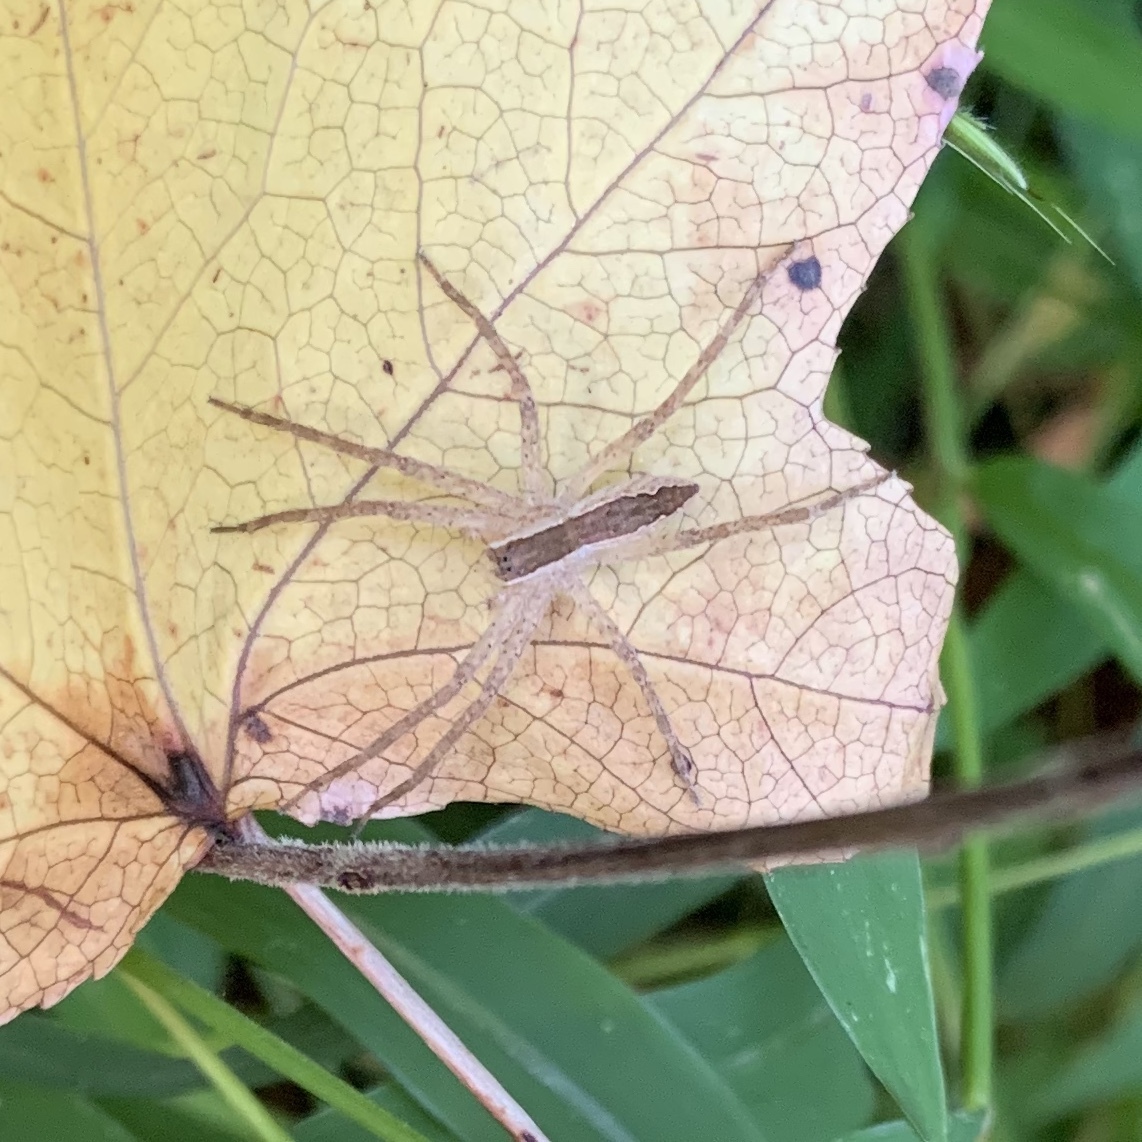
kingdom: Animalia
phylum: Arthropoda
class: Arachnida
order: Araneae
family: Pisauridae
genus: Pisaurina
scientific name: Pisaurina mira
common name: American nursery web spider
